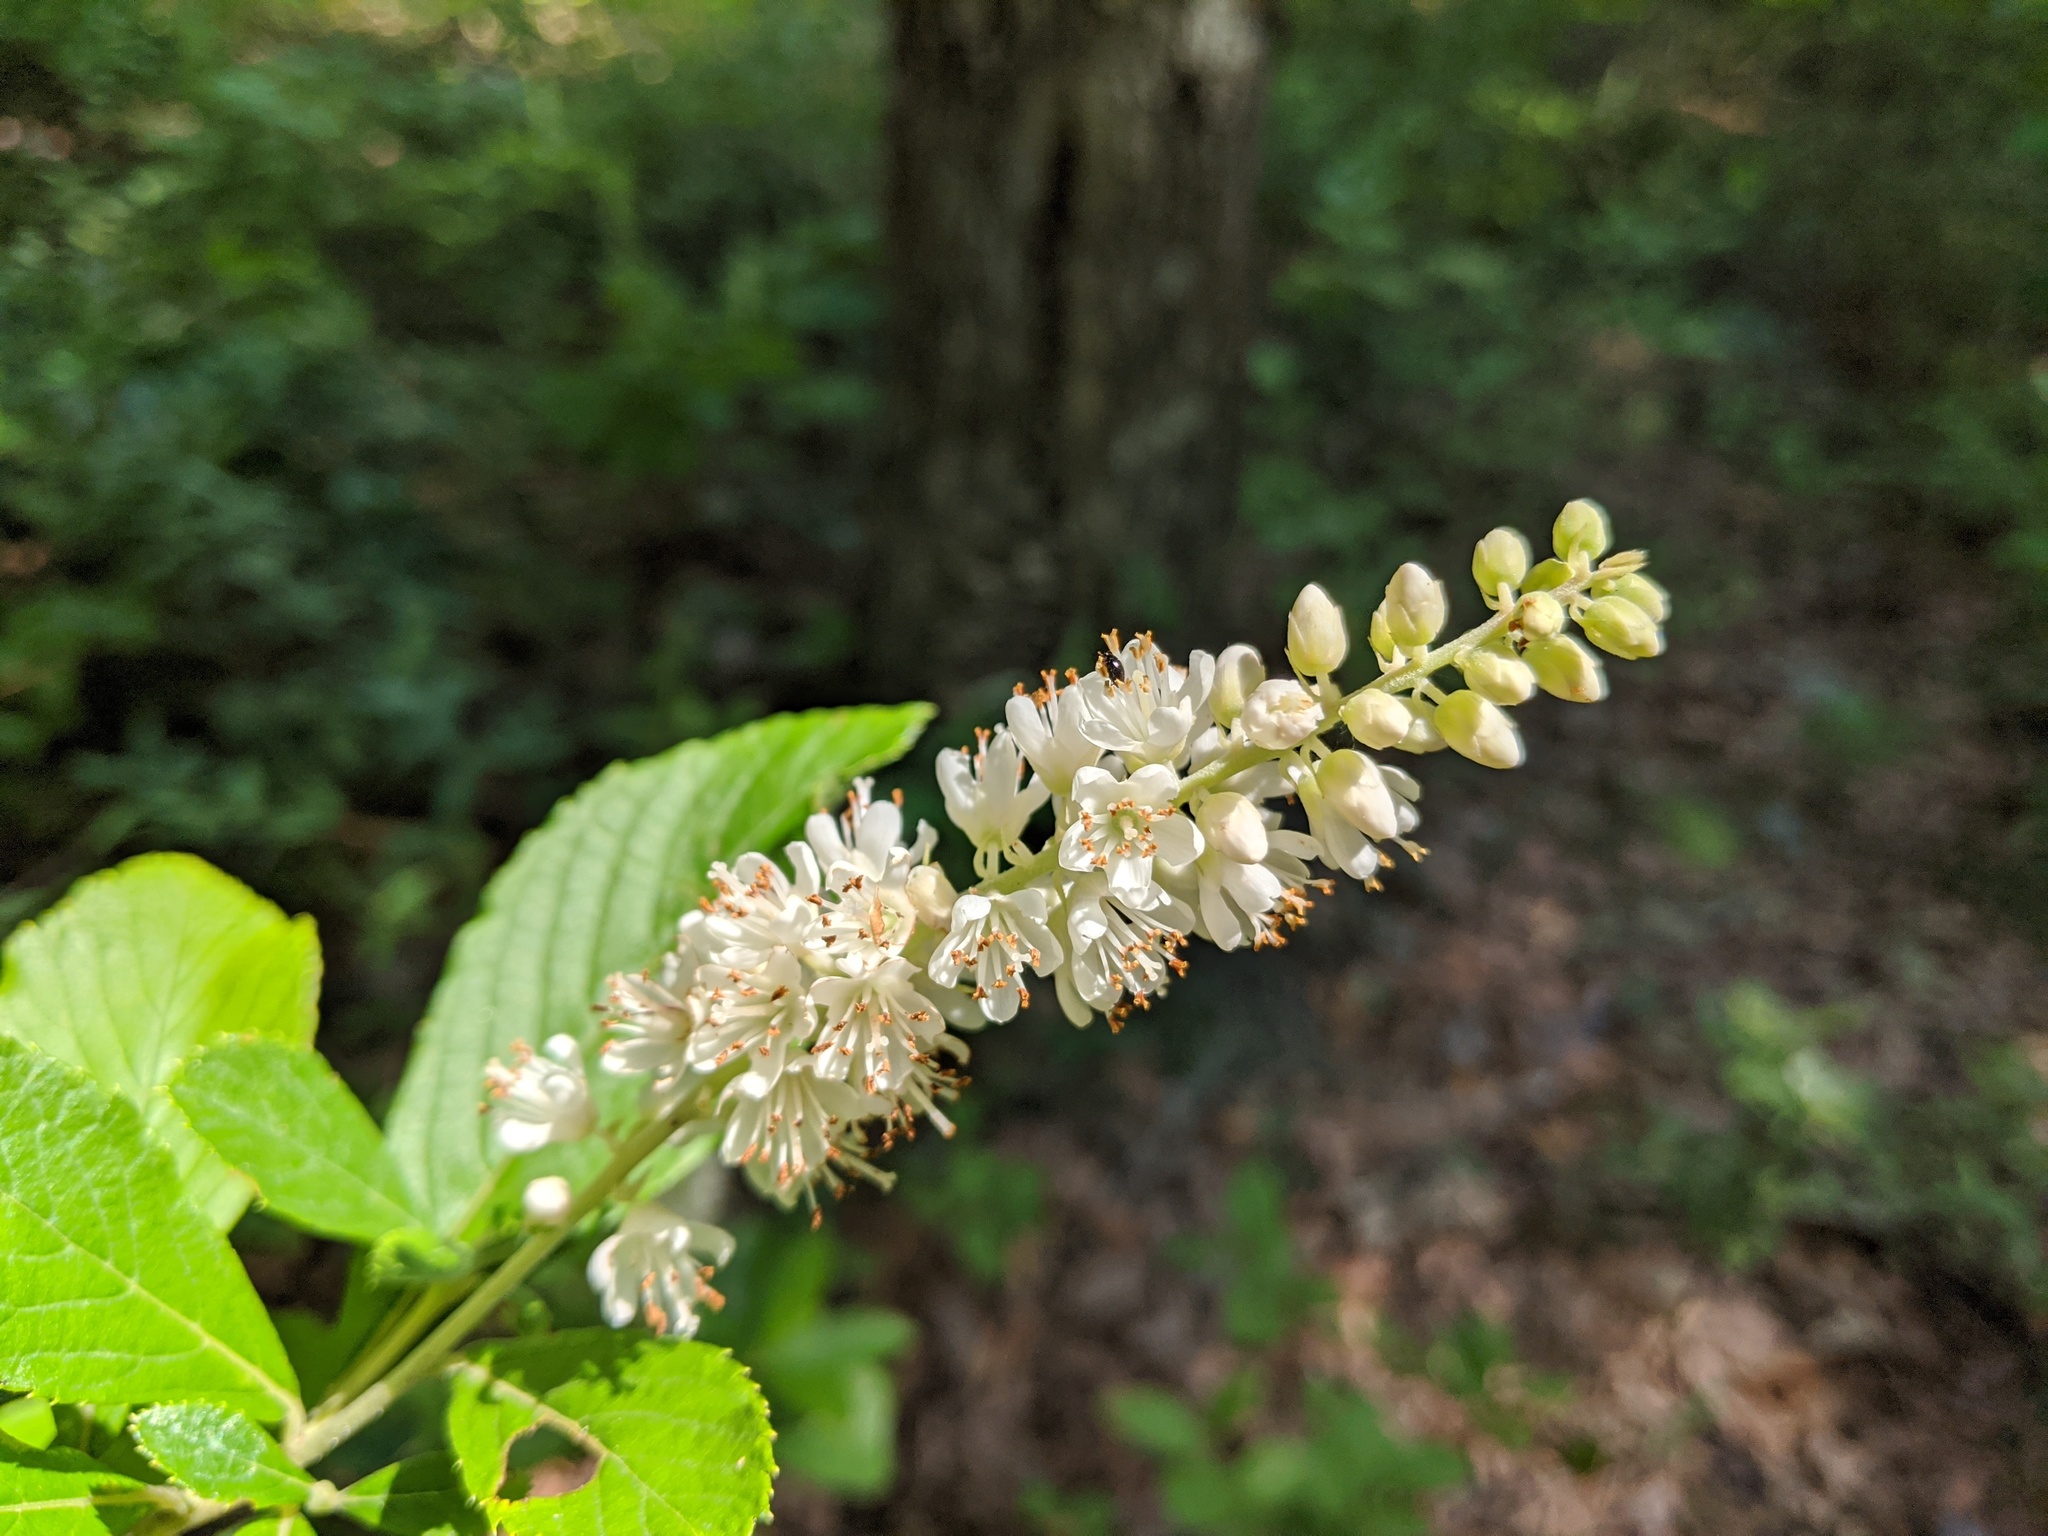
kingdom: Plantae
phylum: Tracheophyta
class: Magnoliopsida
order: Ericales
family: Clethraceae
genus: Clethra
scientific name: Clethra alnifolia
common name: Sweet pepperbush
